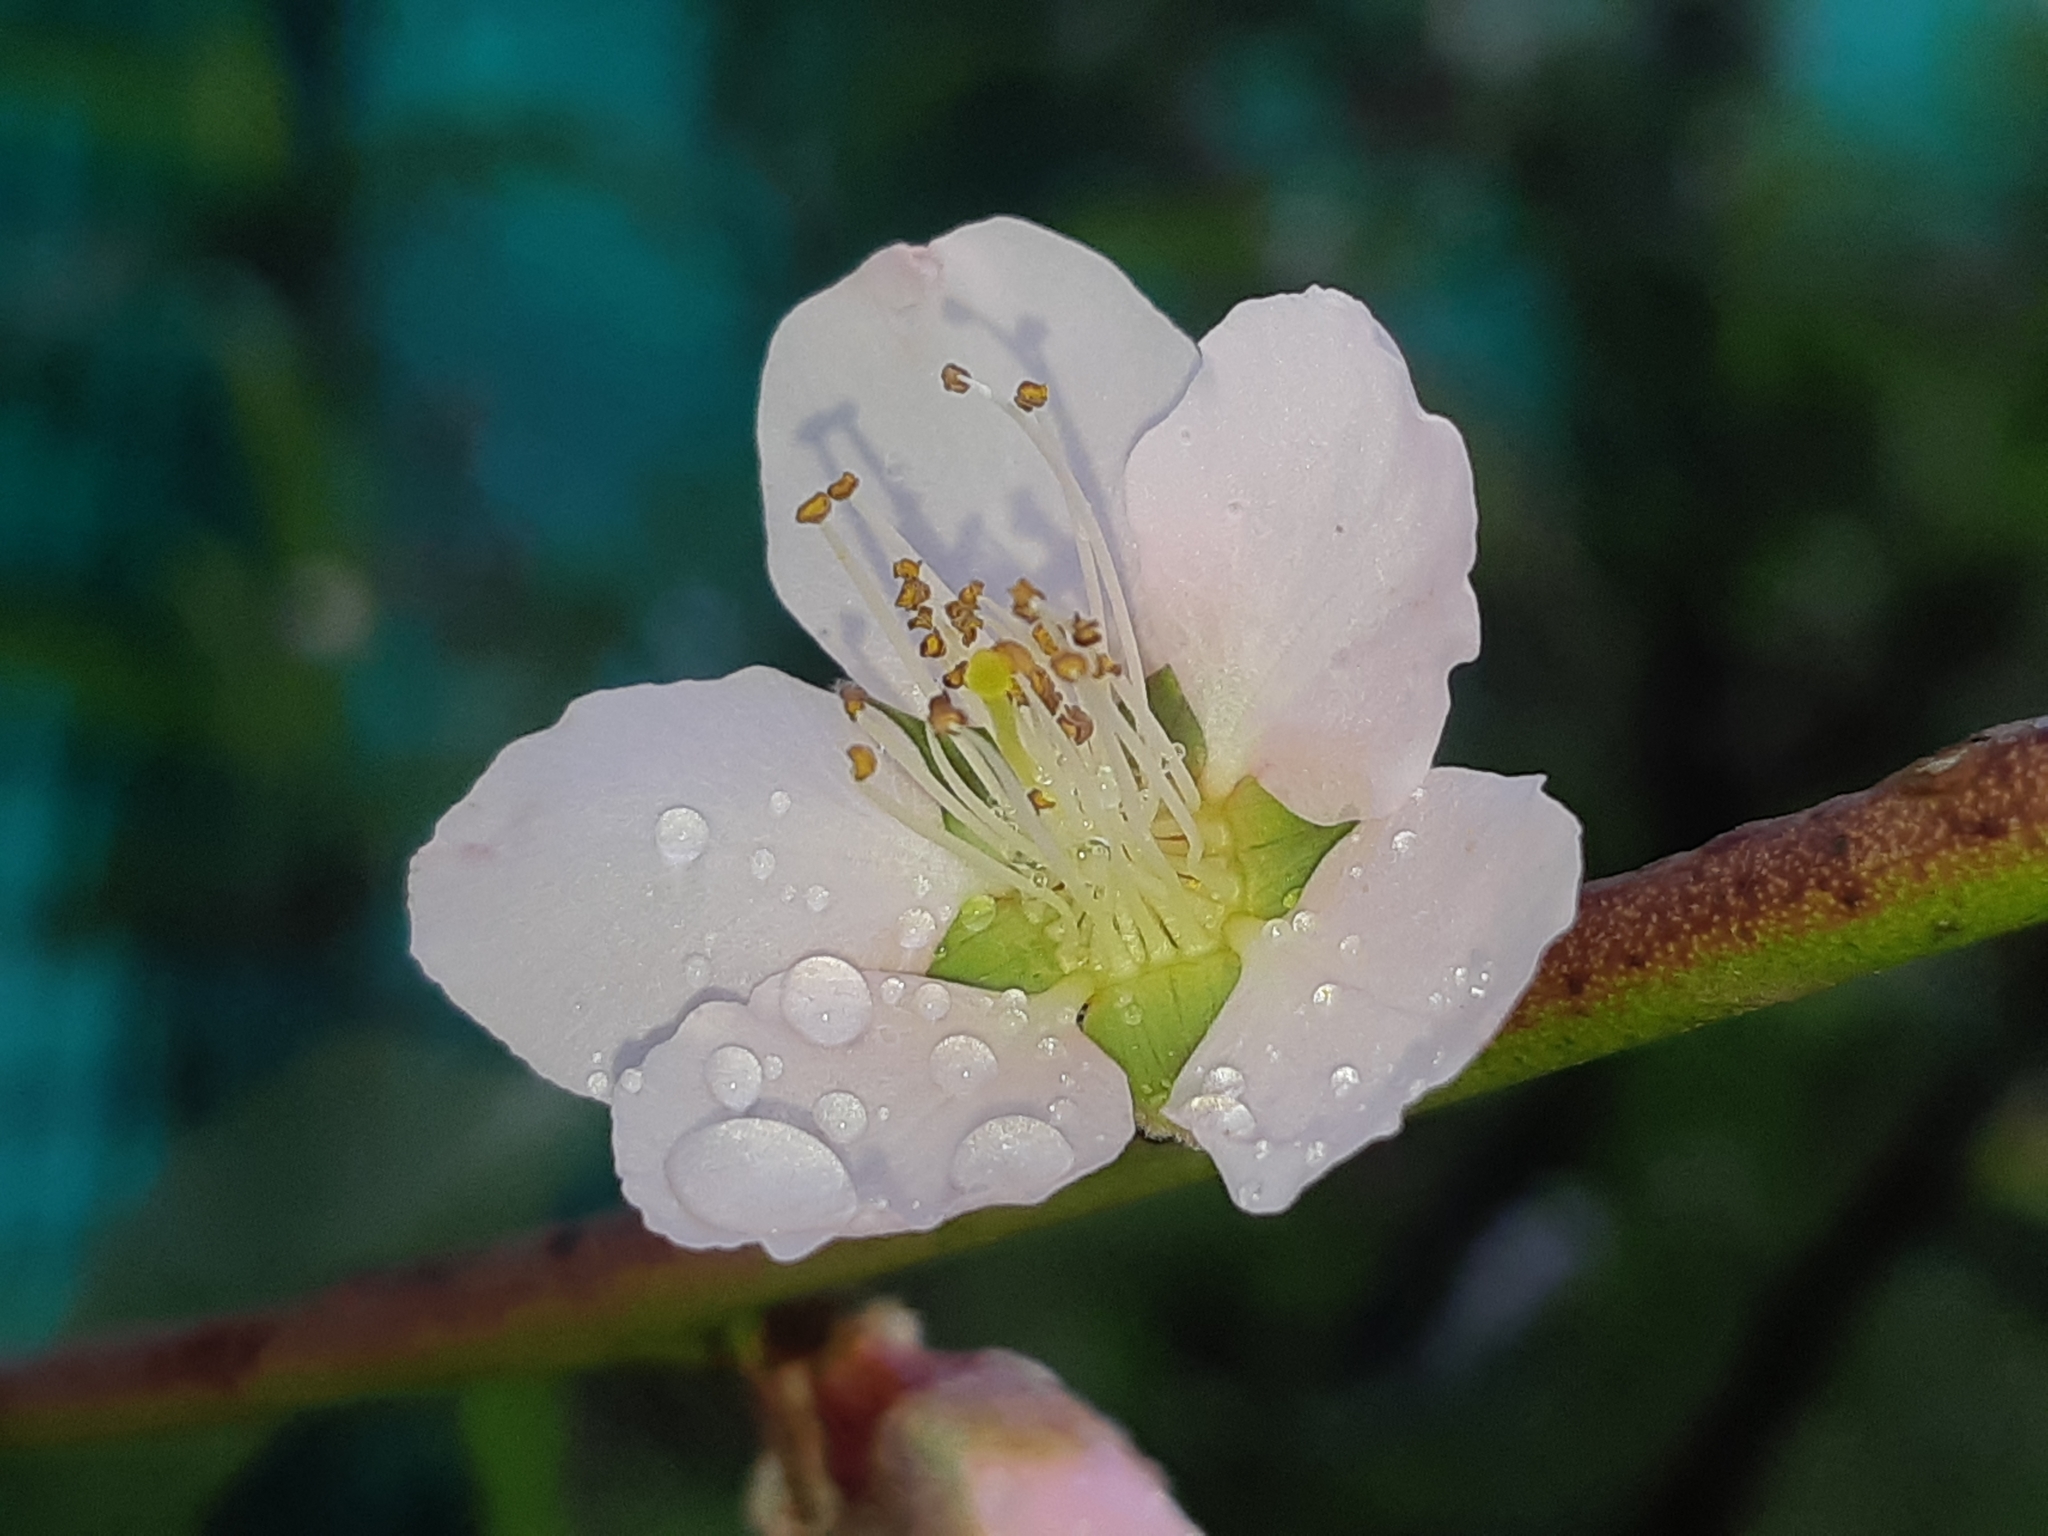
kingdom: Plantae
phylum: Tracheophyta
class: Magnoliopsida
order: Rosales
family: Rosaceae
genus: Prunus
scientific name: Prunus persica
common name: Peach
